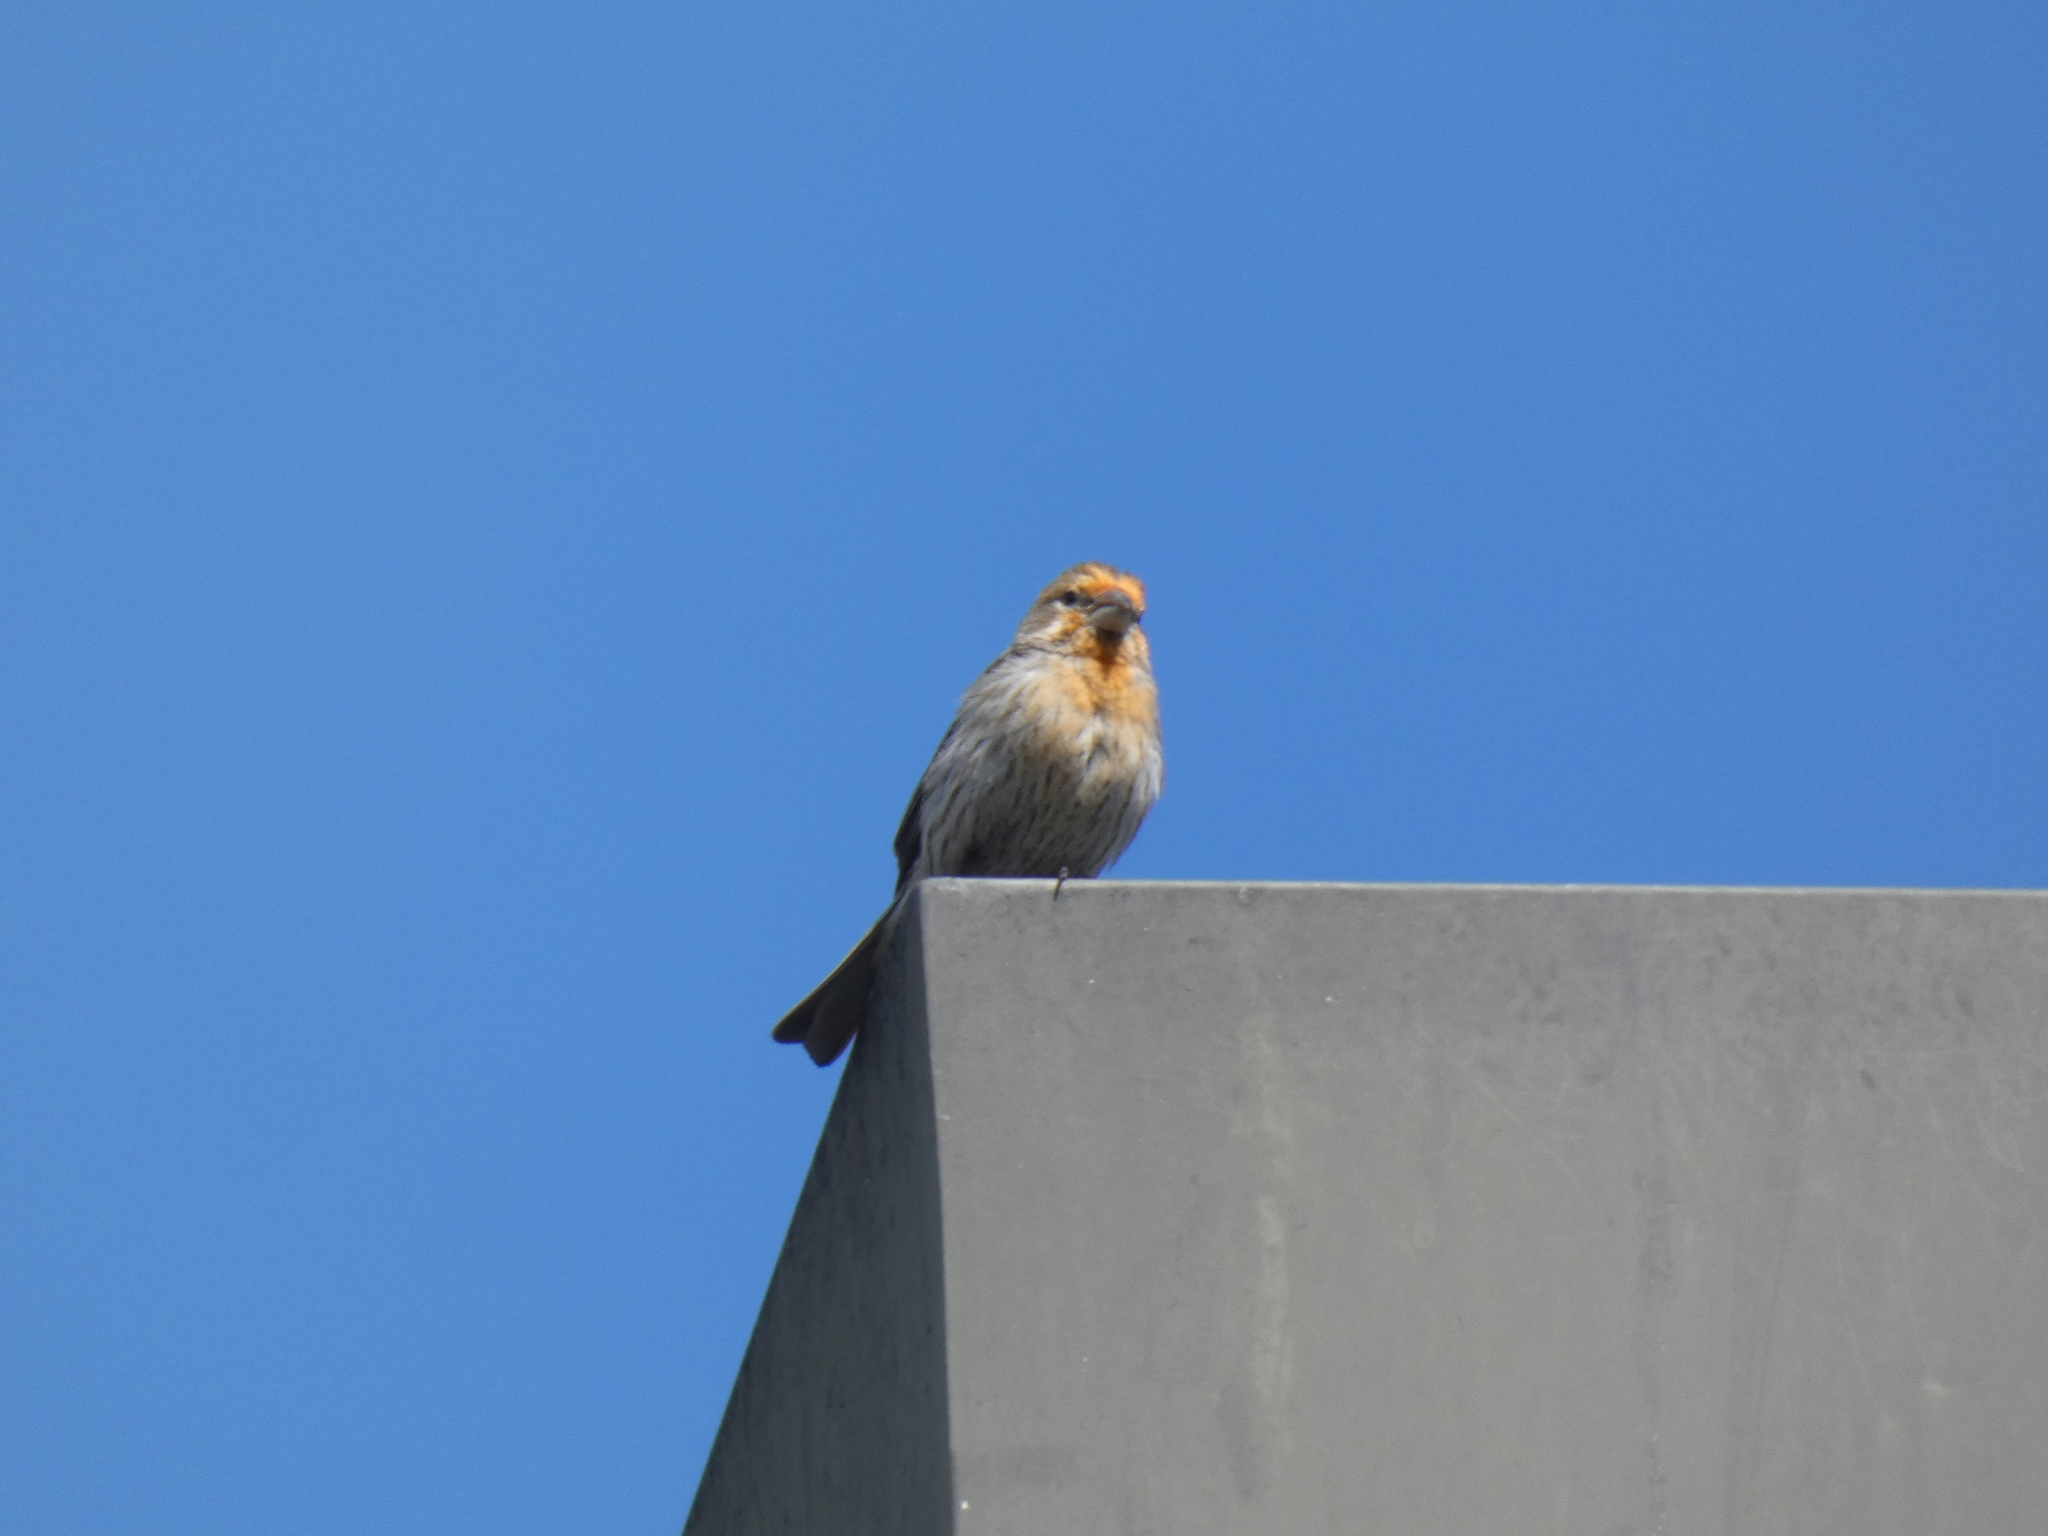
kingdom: Animalia
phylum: Chordata
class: Aves
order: Passeriformes
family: Fringillidae
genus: Haemorhous
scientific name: Haemorhous mexicanus
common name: House finch
